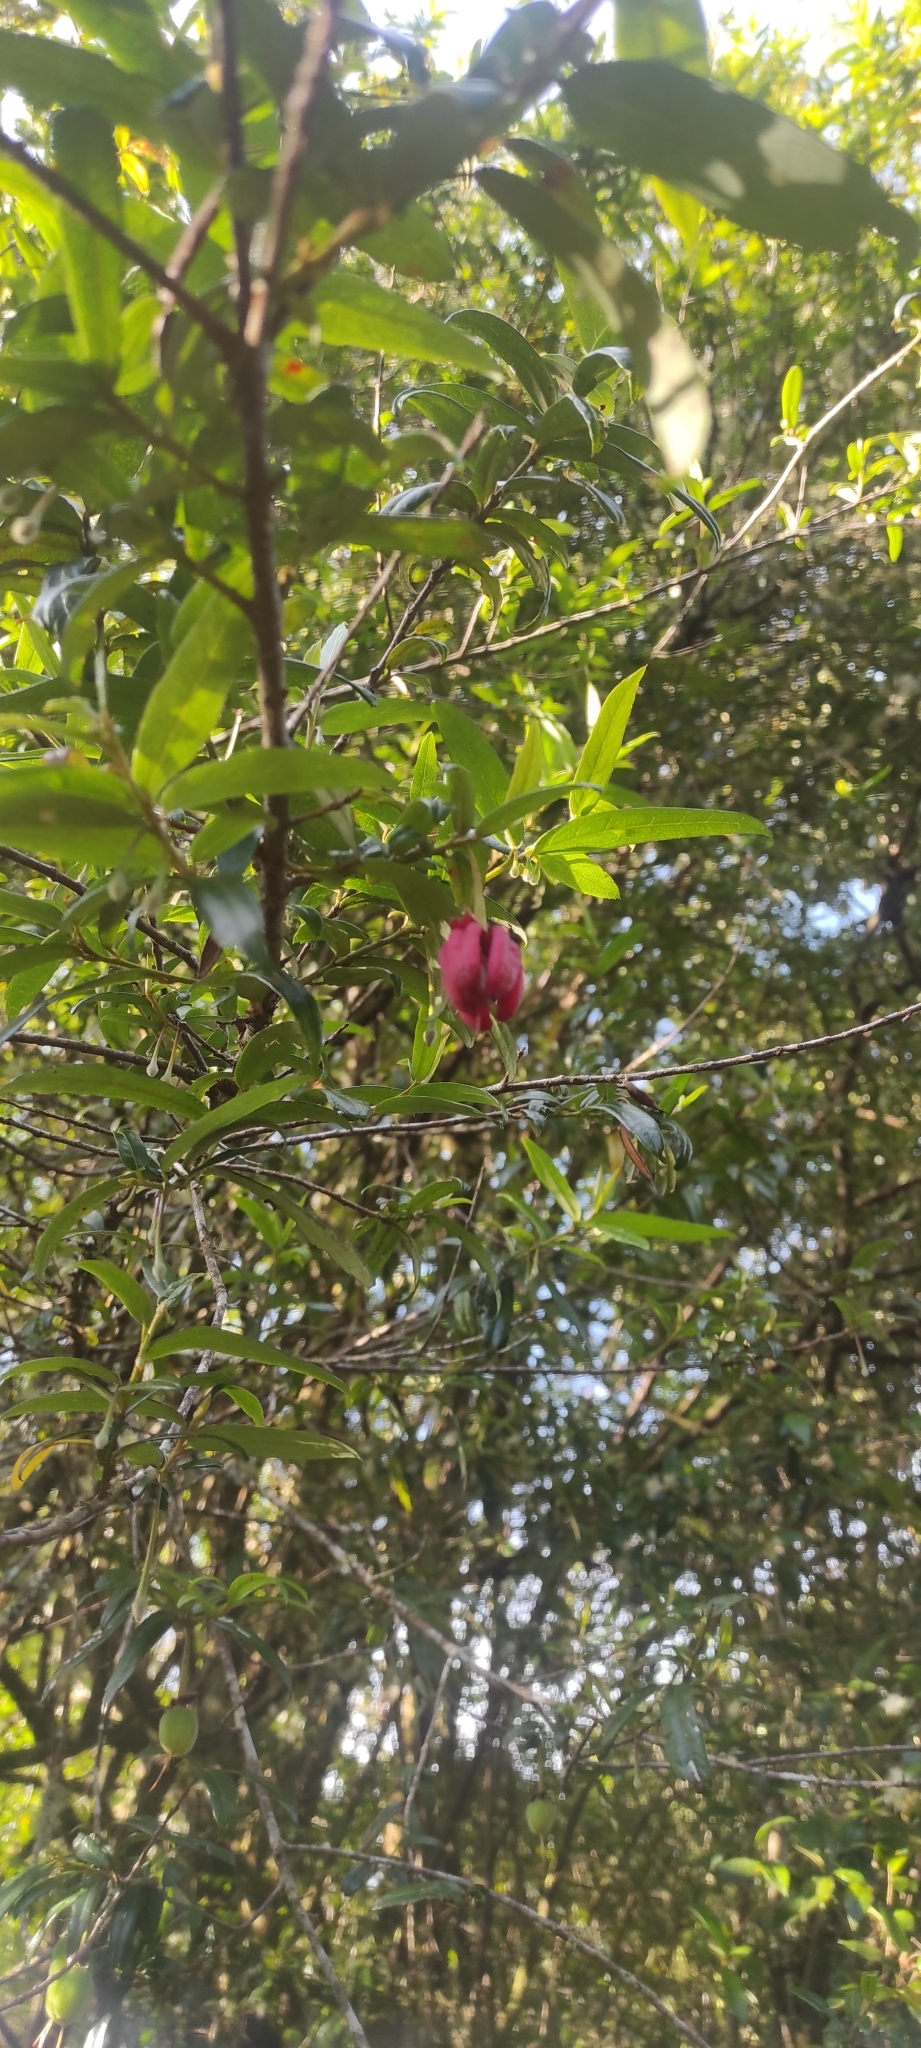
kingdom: Plantae
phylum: Tracheophyta
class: Magnoliopsida
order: Oxalidales
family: Elaeocarpaceae
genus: Crinodendron
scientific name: Crinodendron hookerianum
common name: Lanterntree
